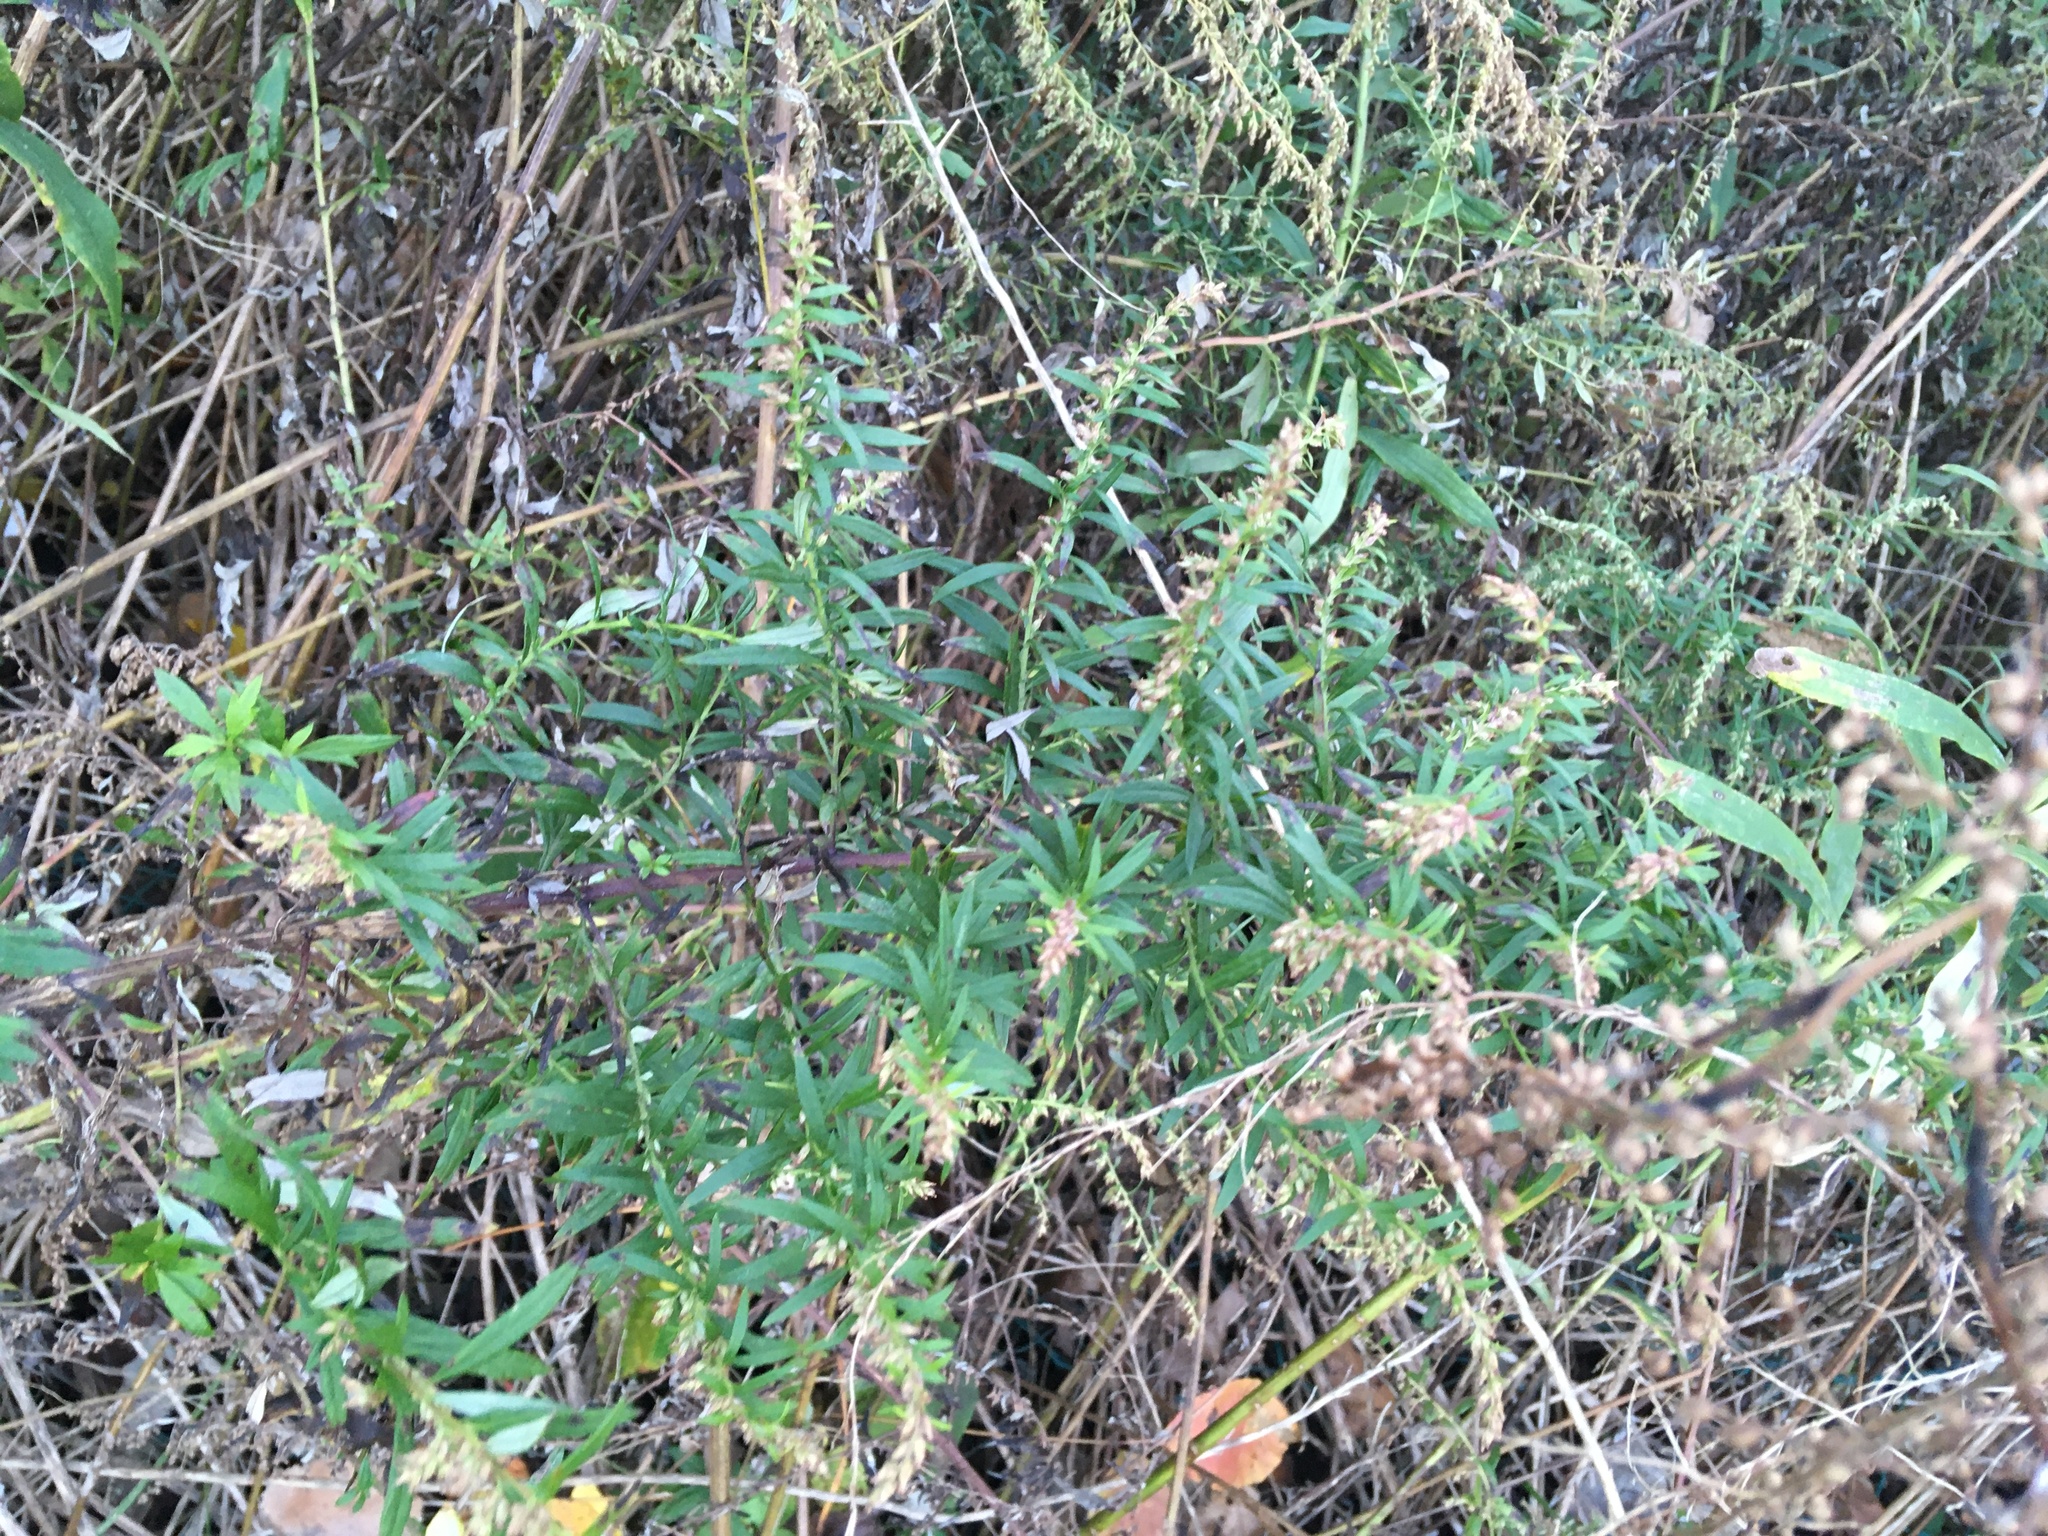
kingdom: Plantae
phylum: Tracheophyta
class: Magnoliopsida
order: Asterales
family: Asteraceae
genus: Artemisia
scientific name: Artemisia vulgaris
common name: Mugwort
